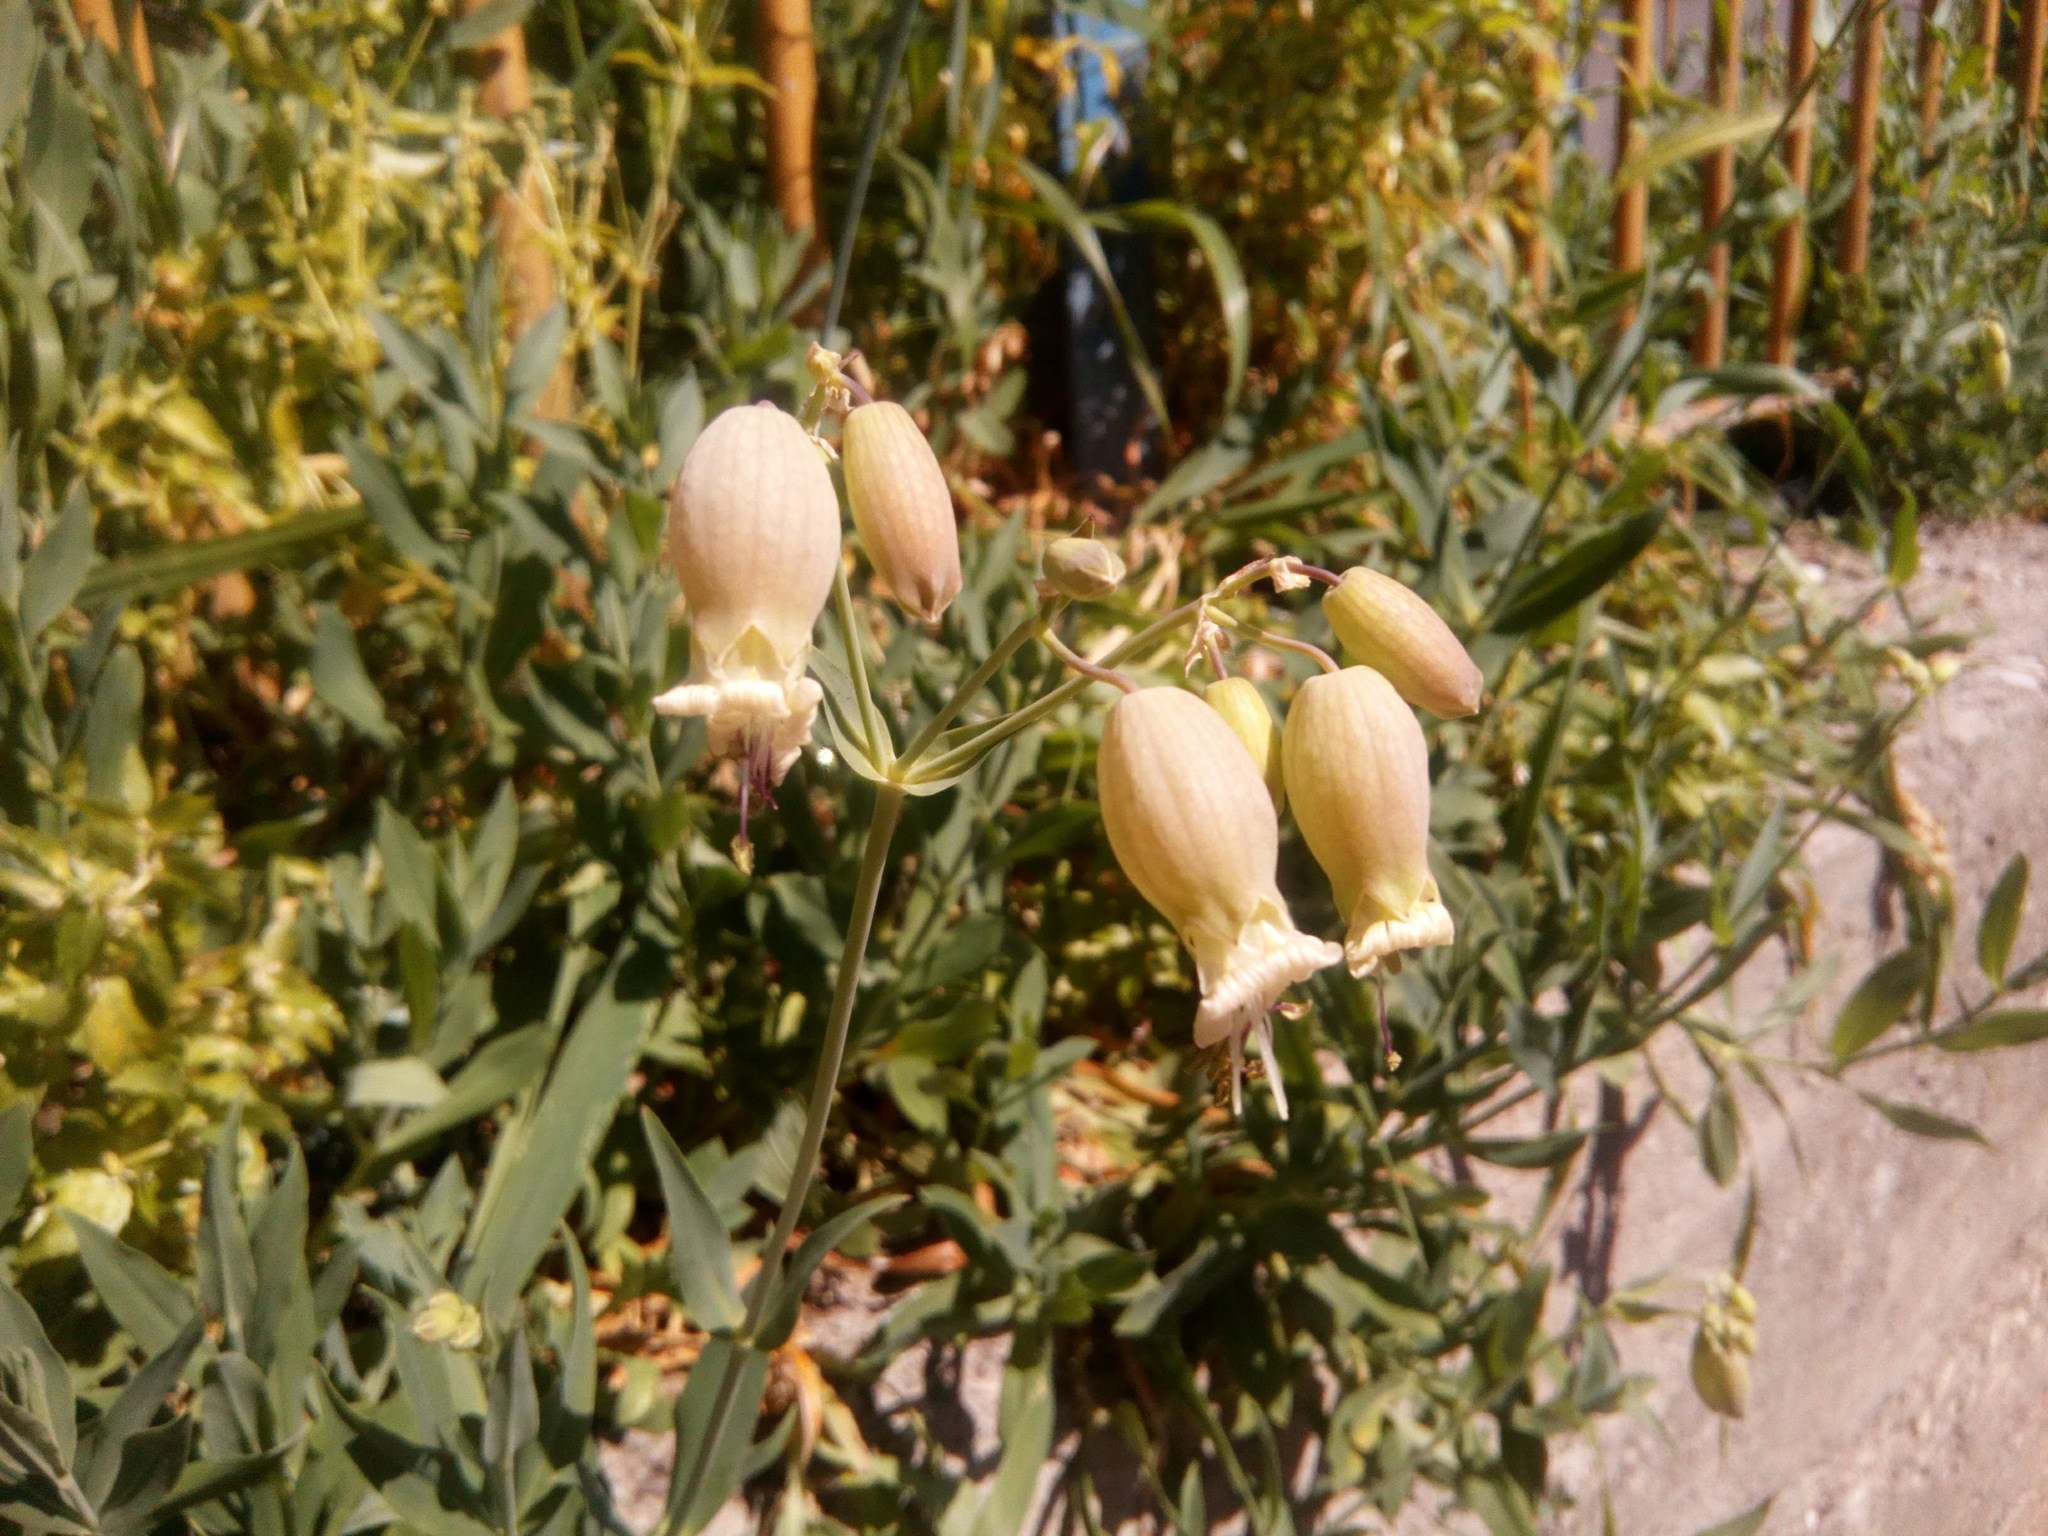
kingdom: Plantae
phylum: Tracheophyta
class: Magnoliopsida
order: Caryophyllales
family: Caryophyllaceae
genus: Silene
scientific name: Silene vulgaris
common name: Bladder campion
